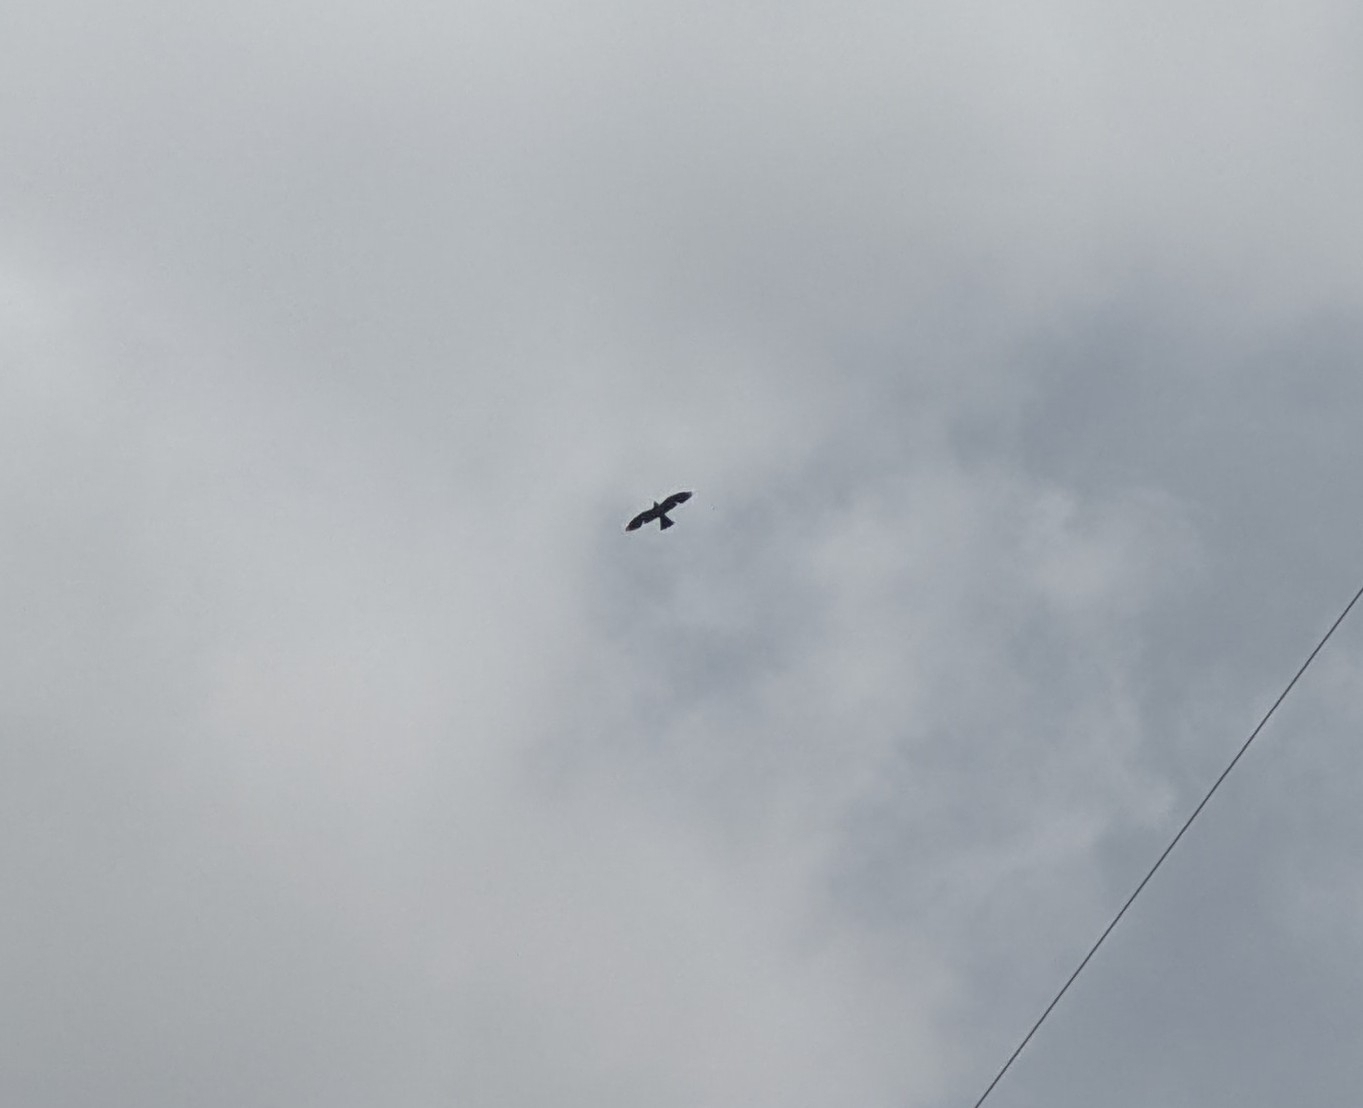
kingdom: Animalia
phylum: Chordata
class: Aves
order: Accipitriformes
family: Accipitridae
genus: Ictinia
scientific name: Ictinia mississippiensis
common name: Mississippi kite
